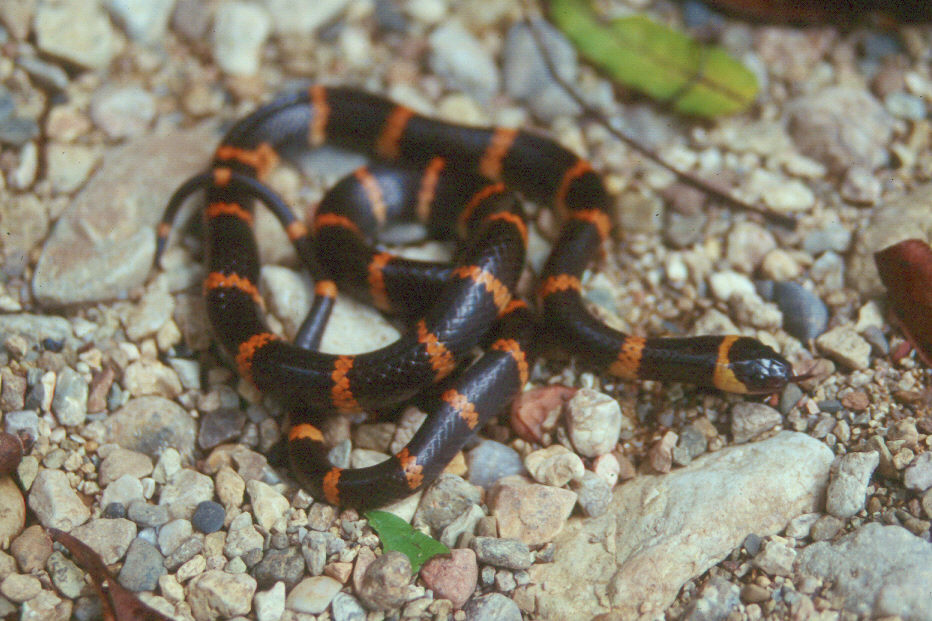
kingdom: Animalia
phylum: Chordata
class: Squamata
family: Colubridae
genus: Geophis
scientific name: Geophis
